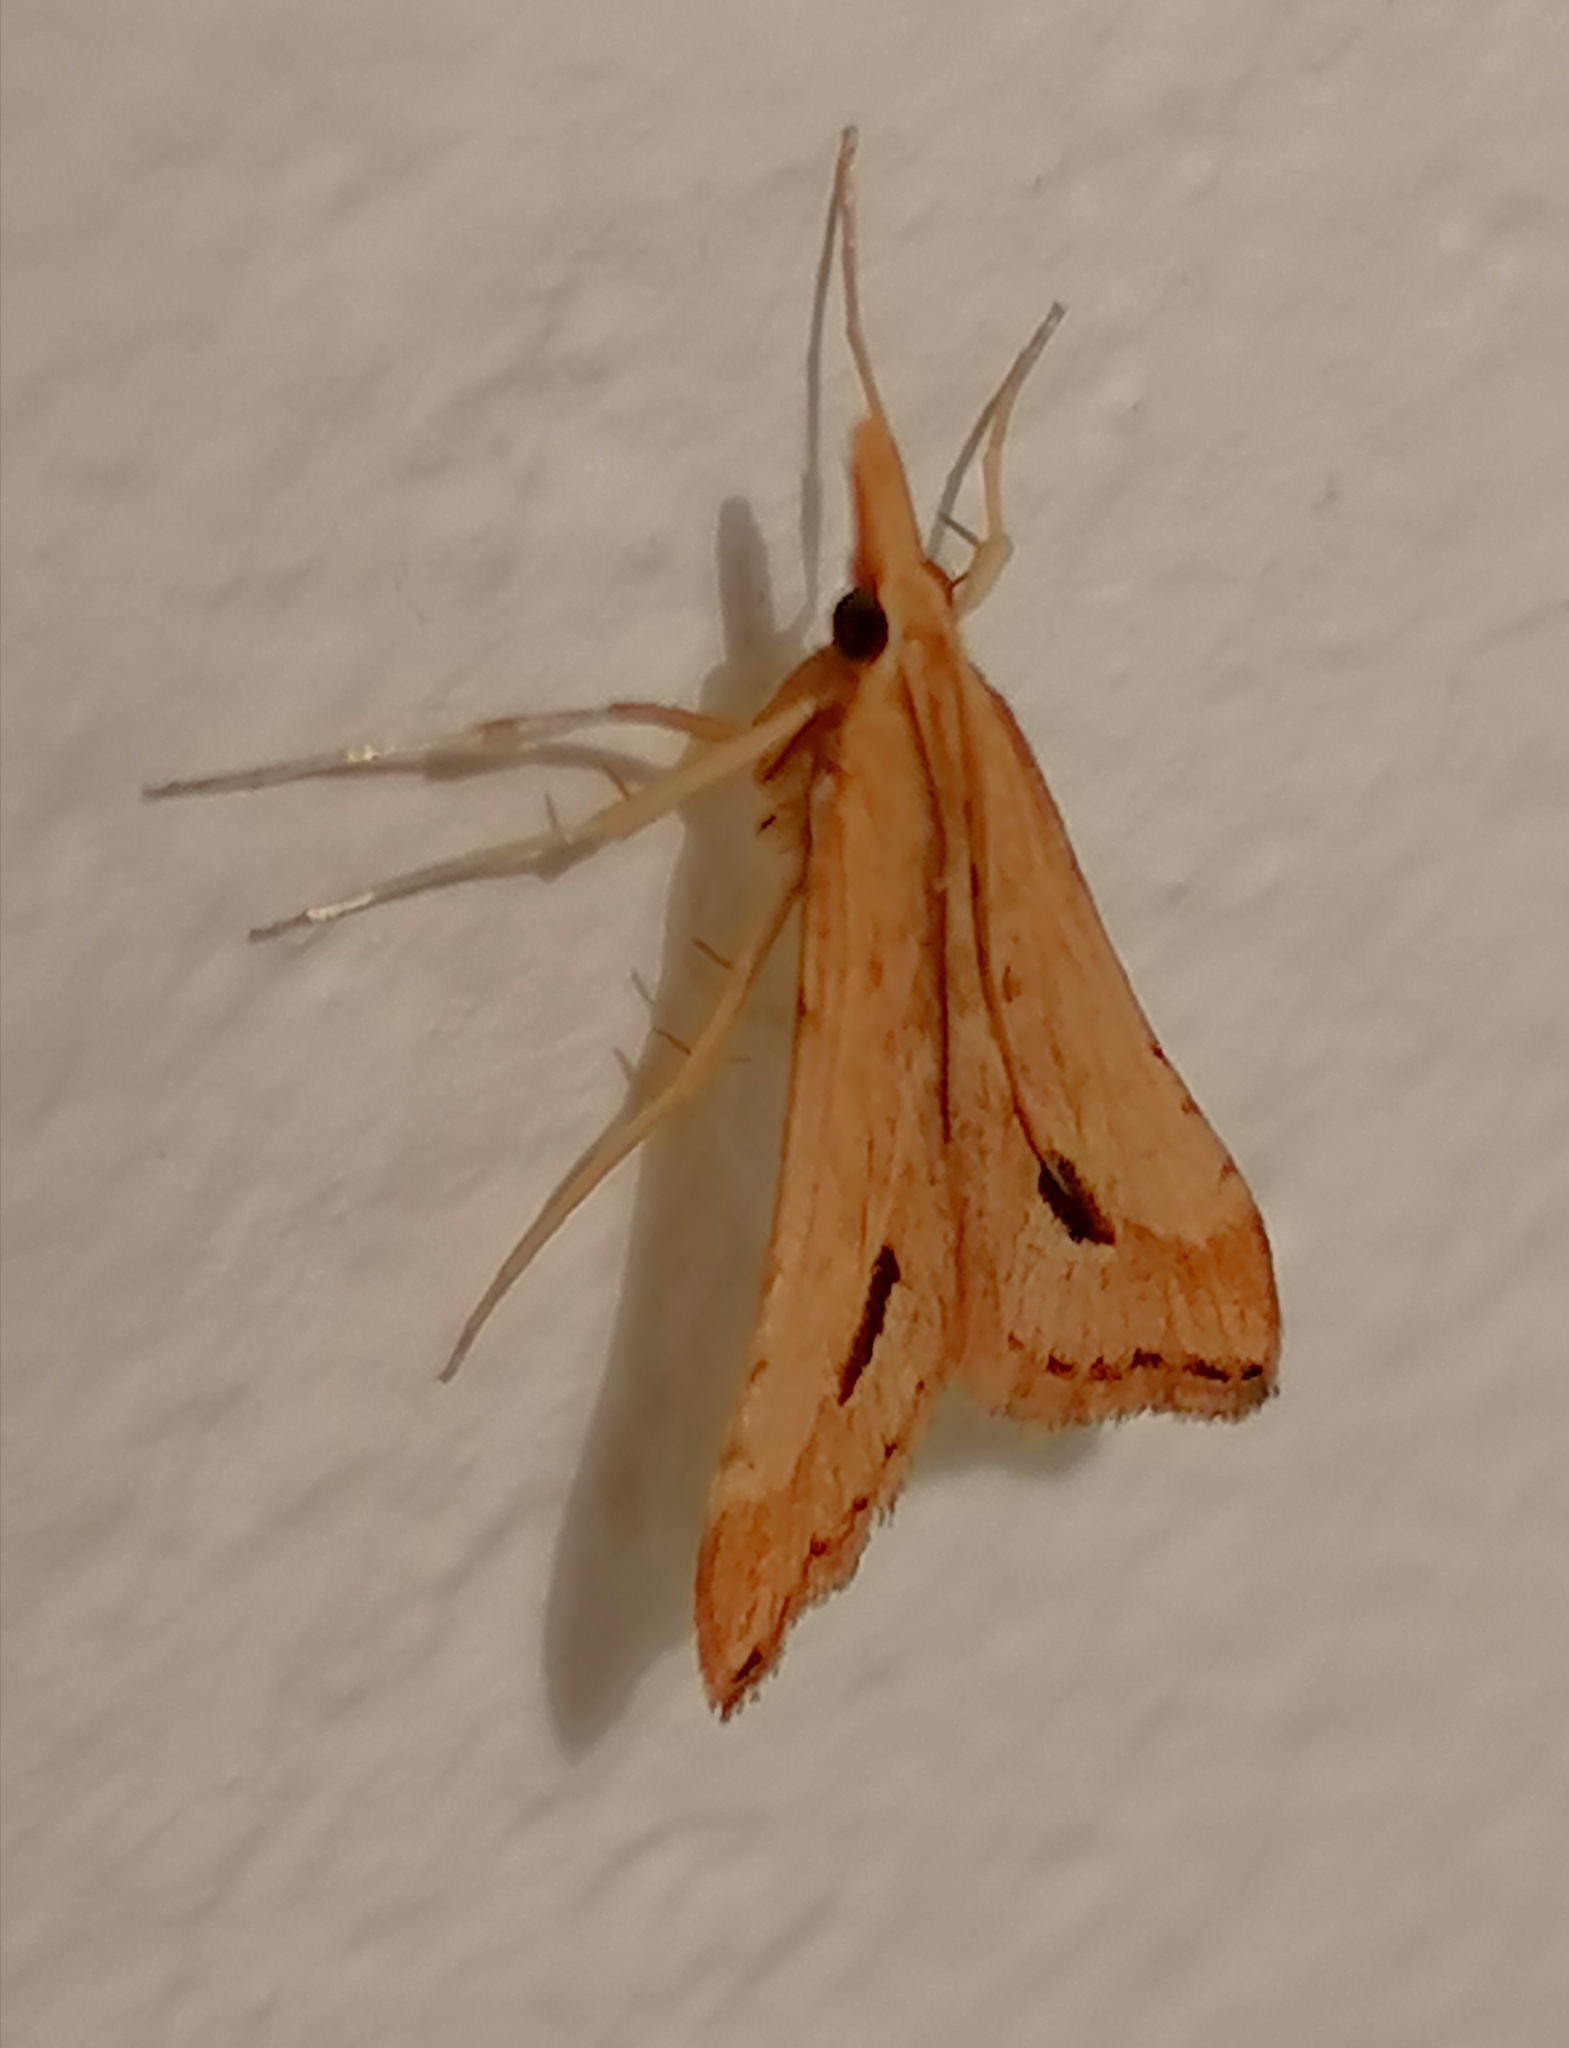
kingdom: Animalia
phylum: Arthropoda
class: Insecta
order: Lepidoptera
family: Crambidae
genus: Diasemia
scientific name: Diasemia monostigma
